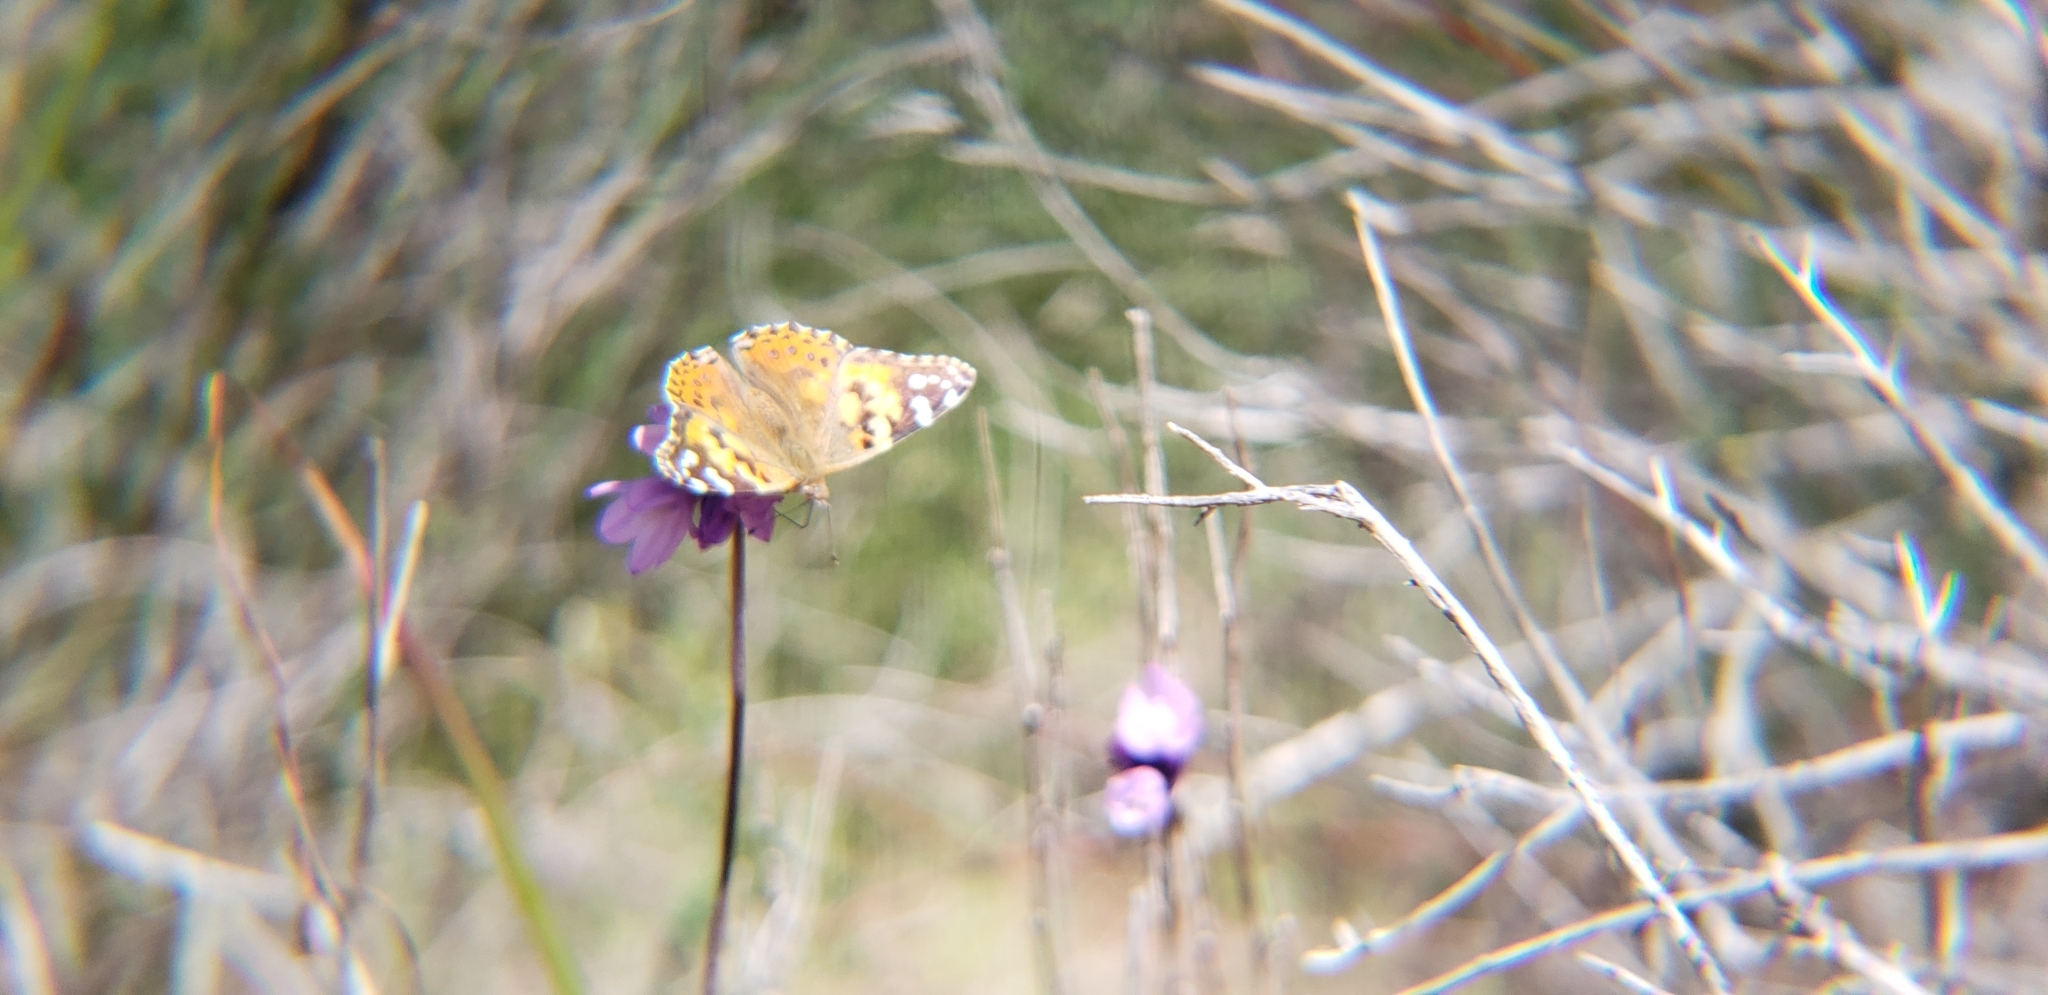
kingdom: Animalia
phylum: Arthropoda
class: Insecta
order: Lepidoptera
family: Nymphalidae
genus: Vanessa
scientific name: Vanessa cardui
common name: Painted lady
